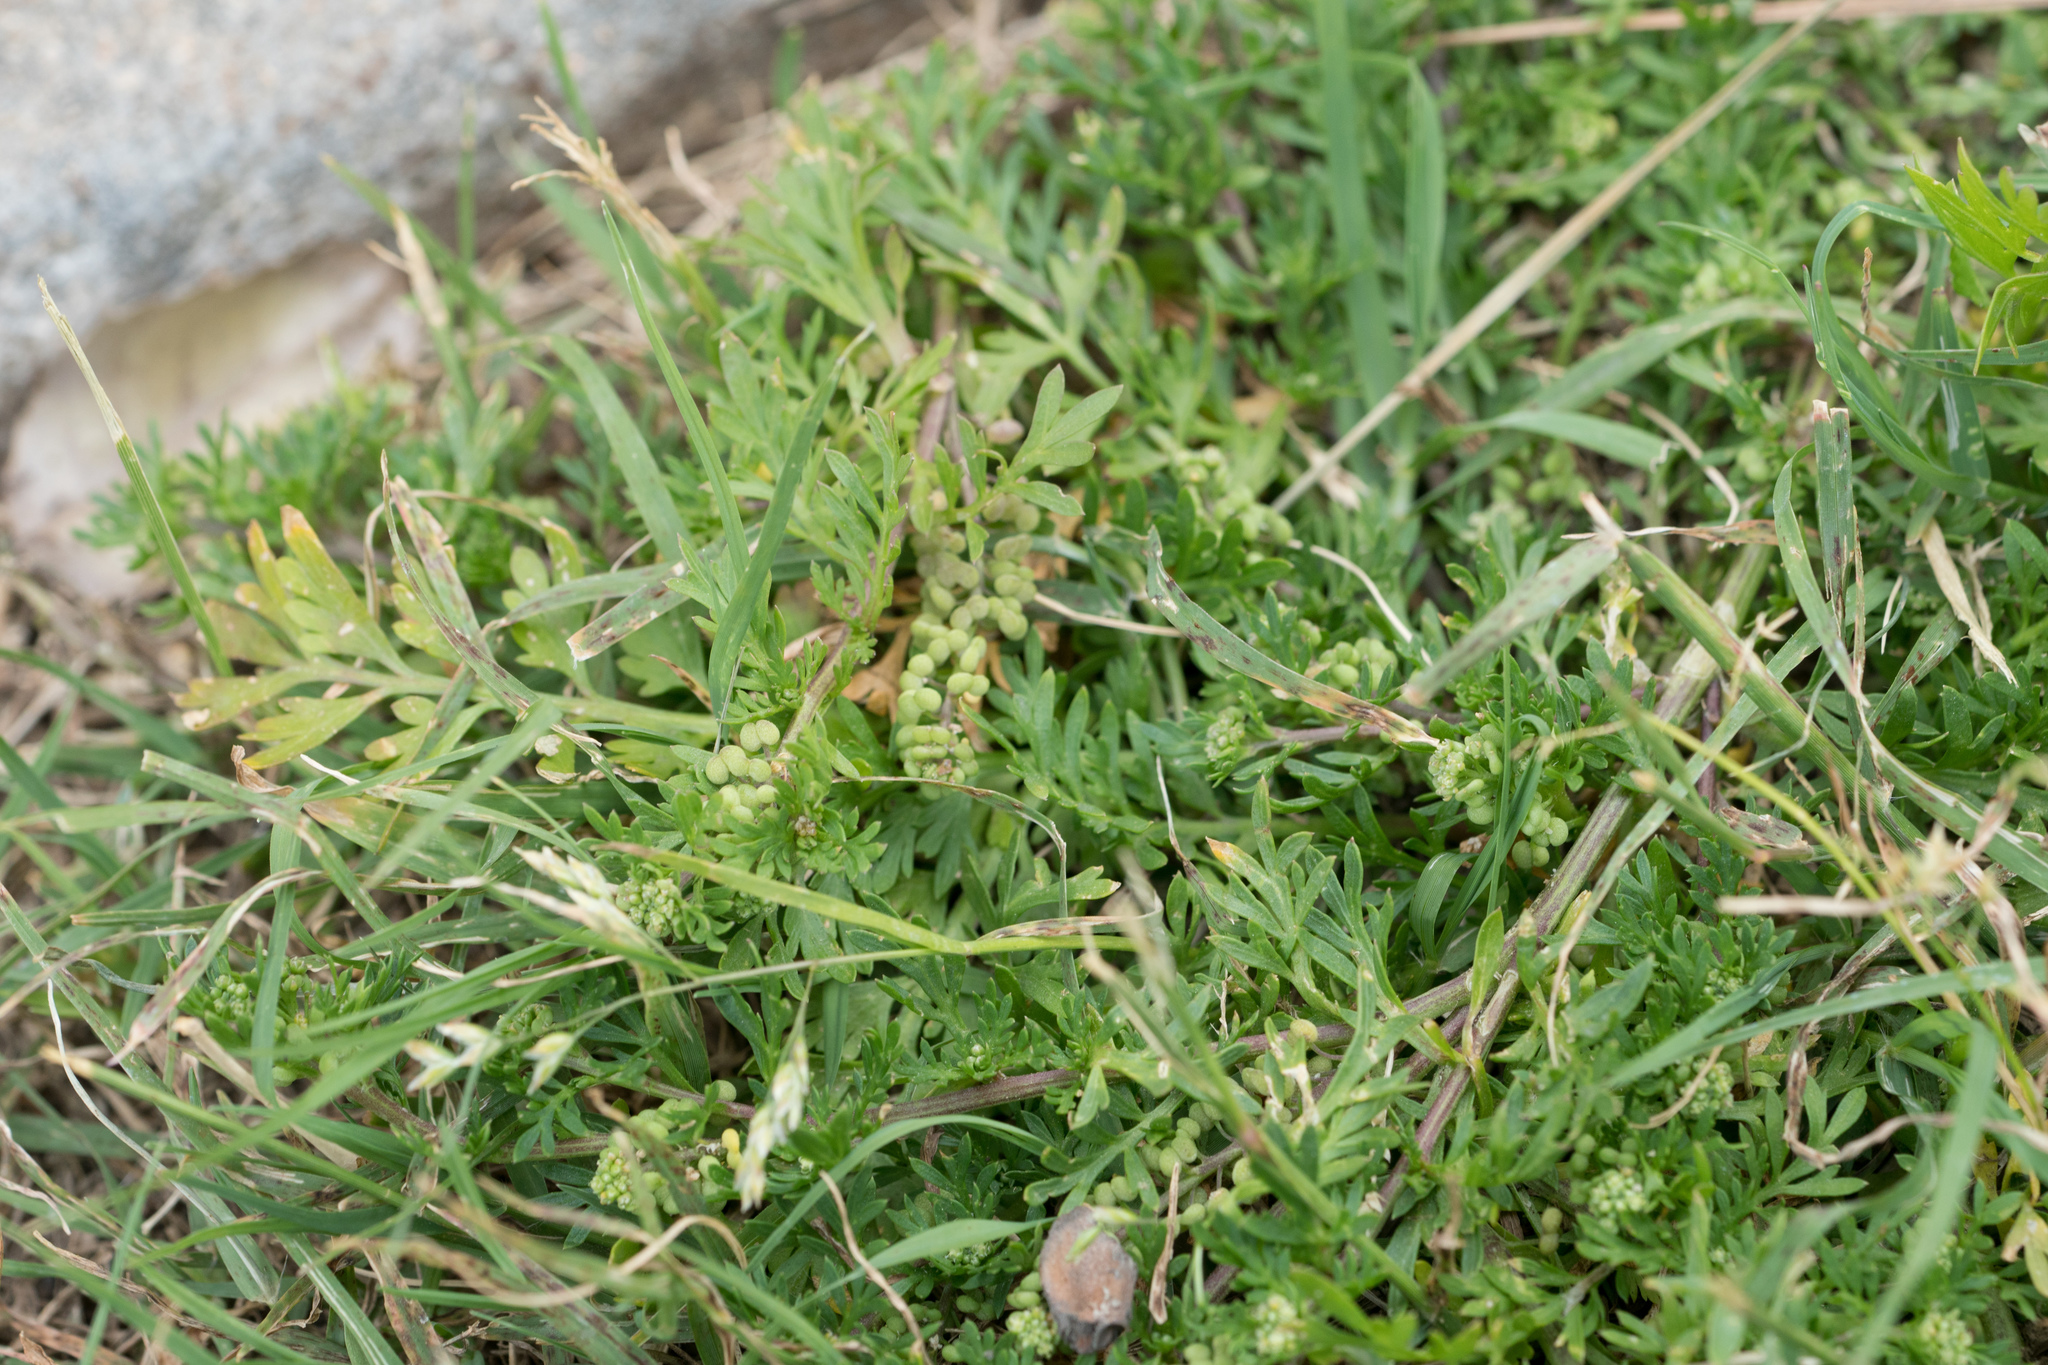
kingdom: Plantae
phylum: Tracheophyta
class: Magnoliopsida
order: Brassicales
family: Brassicaceae
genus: Lepidium
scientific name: Lepidium didymum
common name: Lesser swinecress
